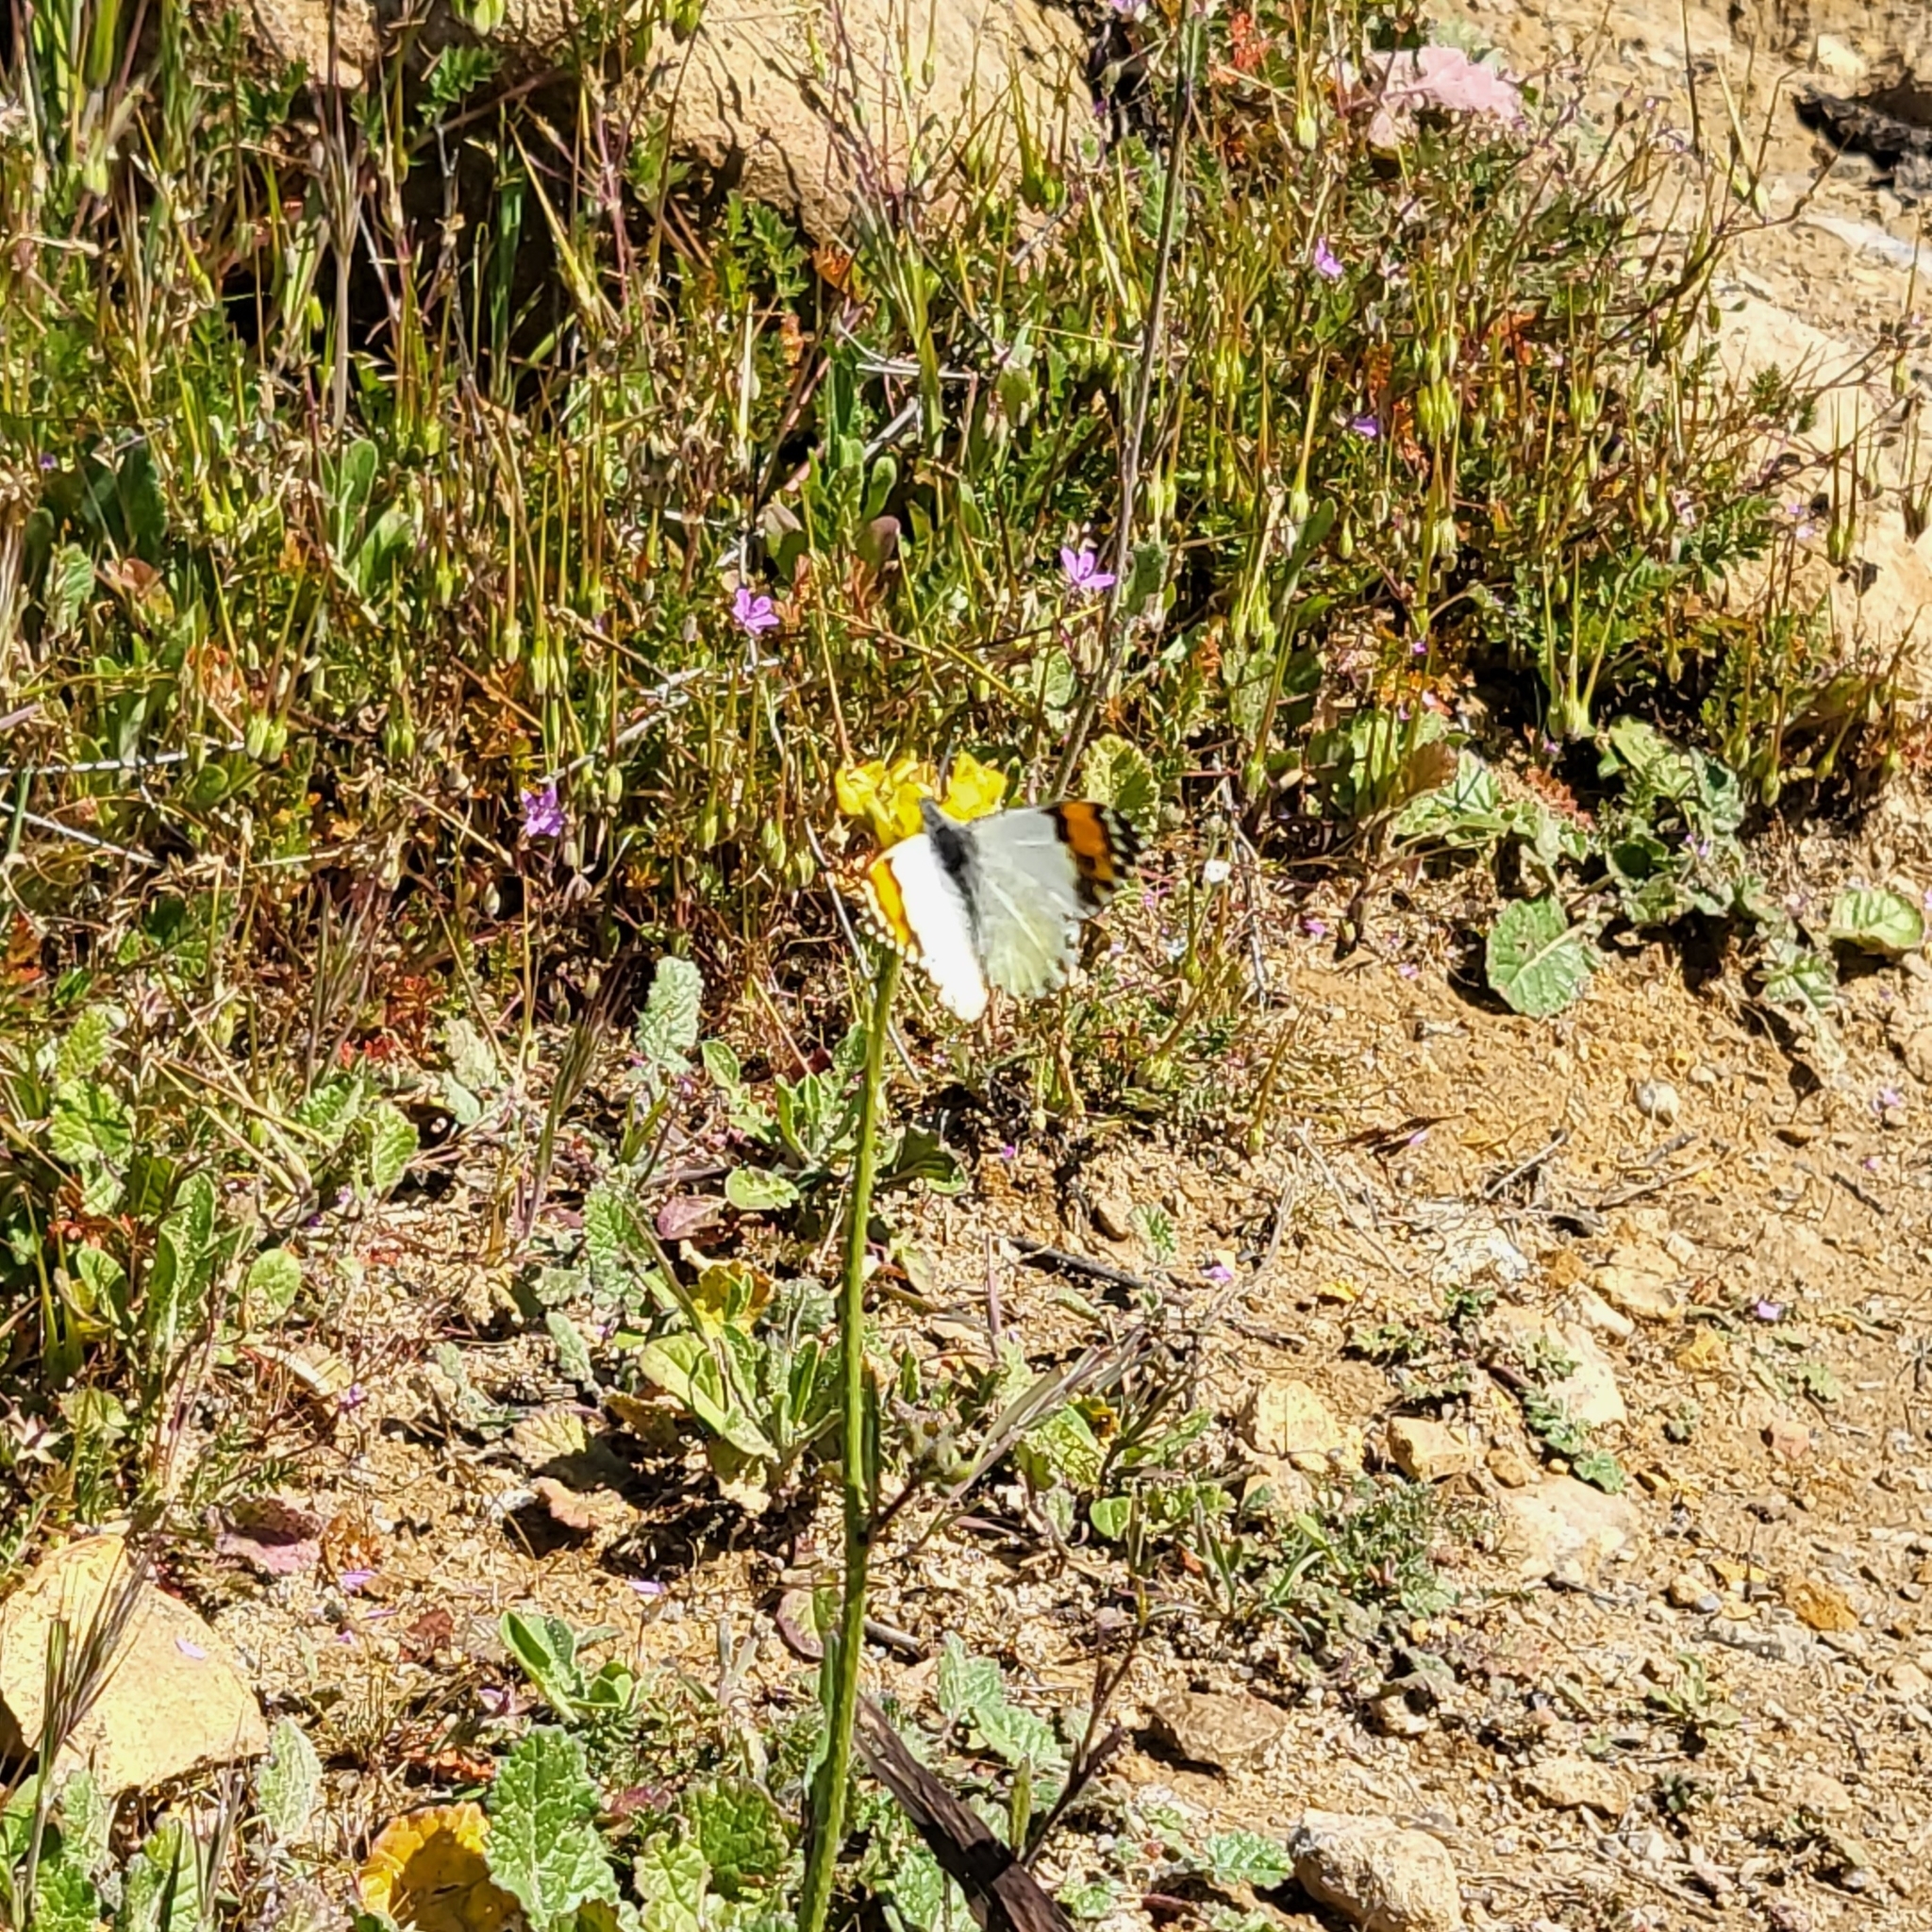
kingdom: Animalia
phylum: Arthropoda
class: Insecta
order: Lepidoptera
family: Pieridae
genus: Anthocharis
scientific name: Anthocharis sara
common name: Sara's orangetip
